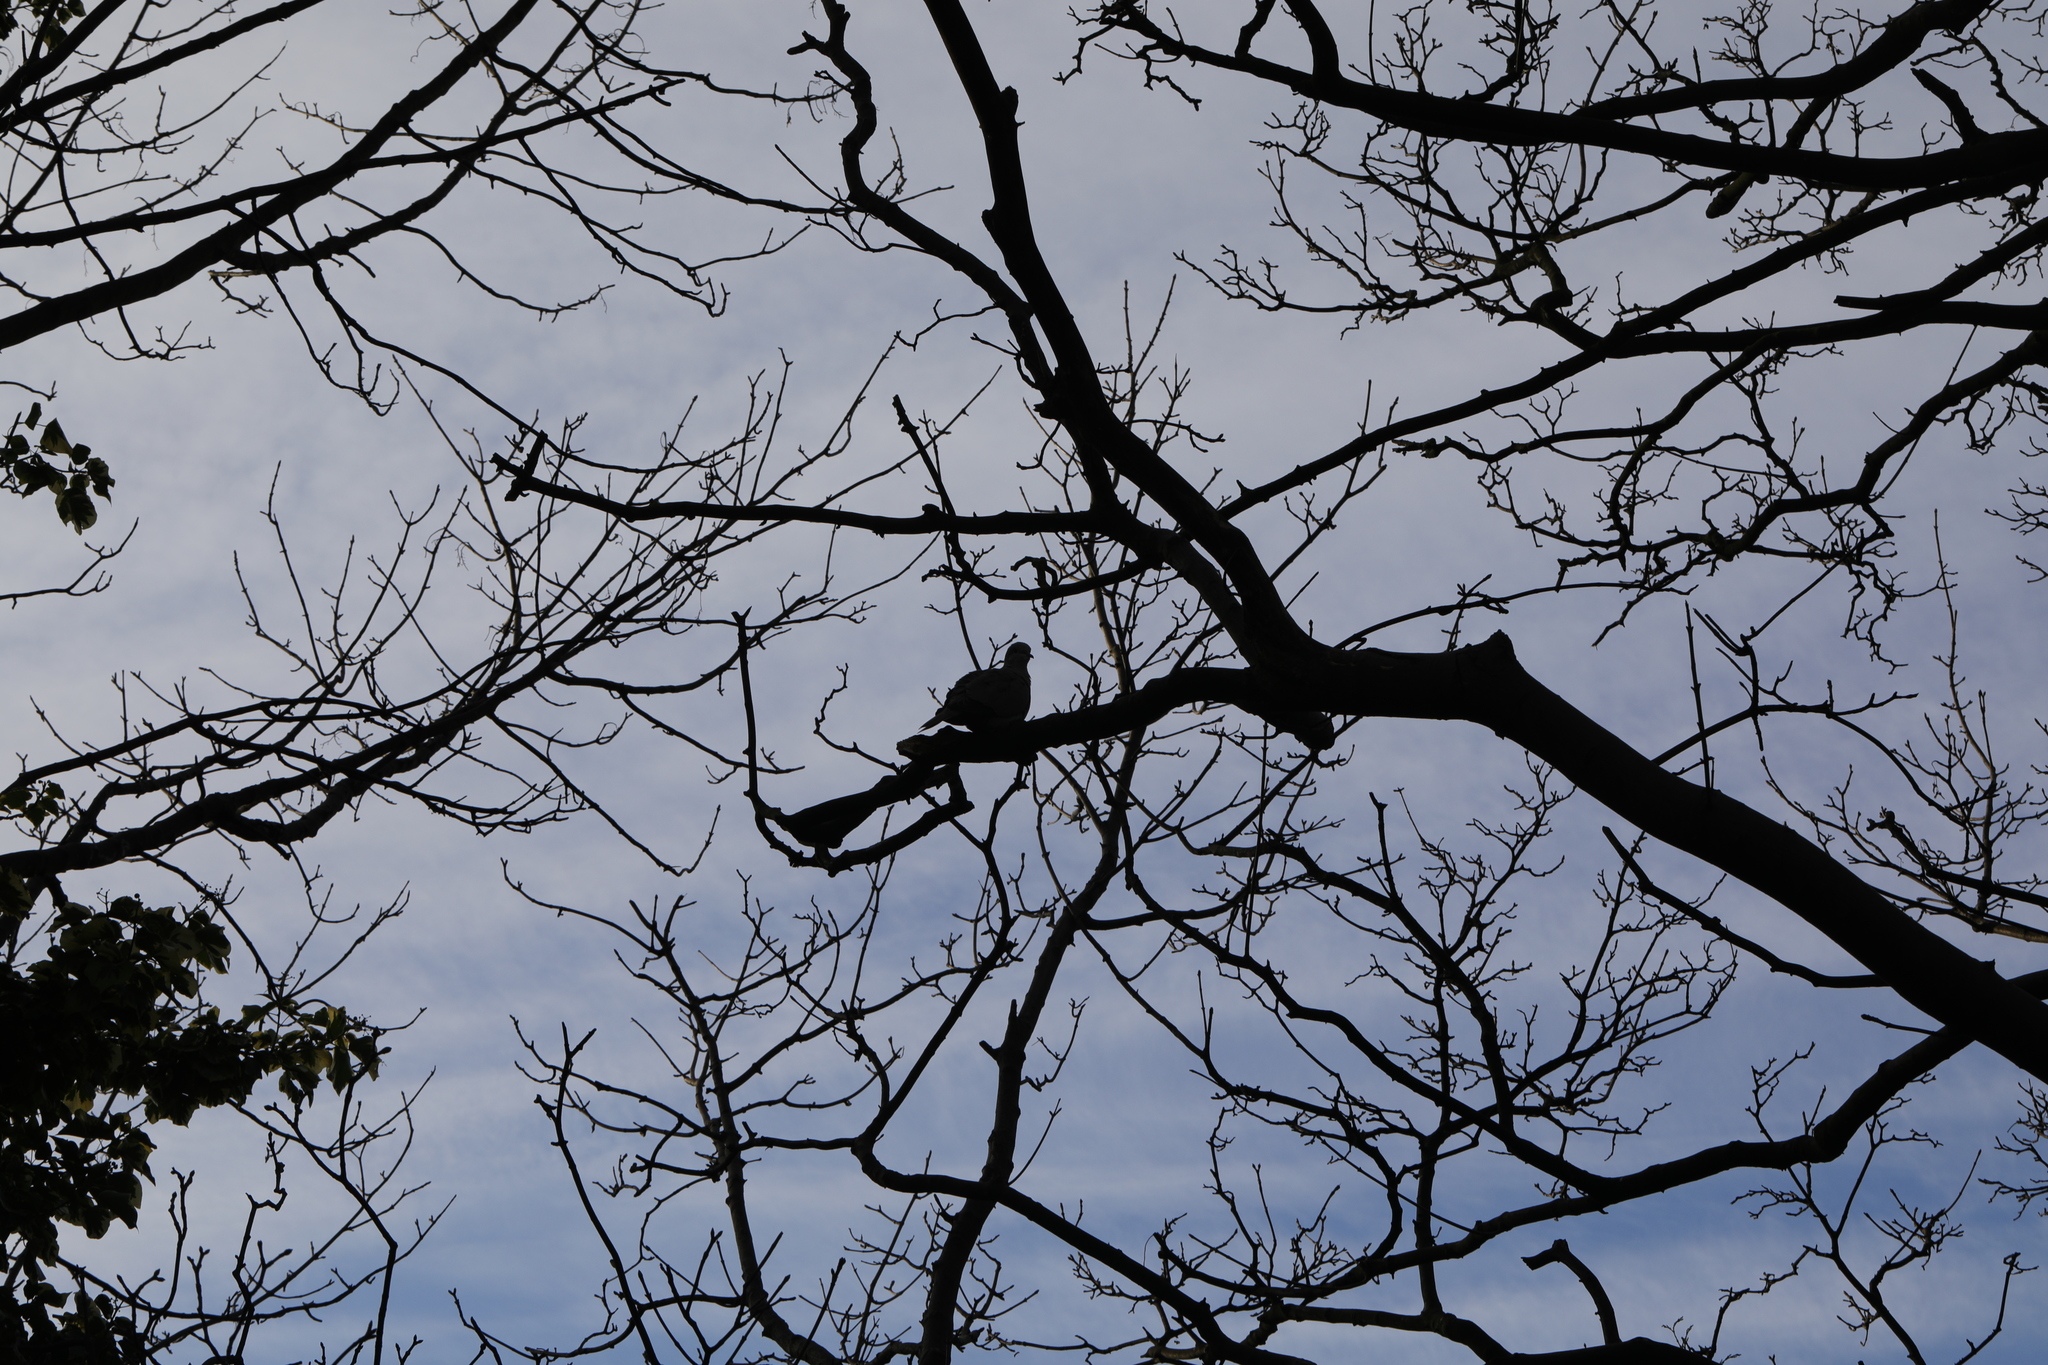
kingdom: Animalia
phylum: Chordata
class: Aves
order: Columbiformes
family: Columbidae
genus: Streptopelia
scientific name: Streptopelia decaocto
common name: Eurasian collared dove
